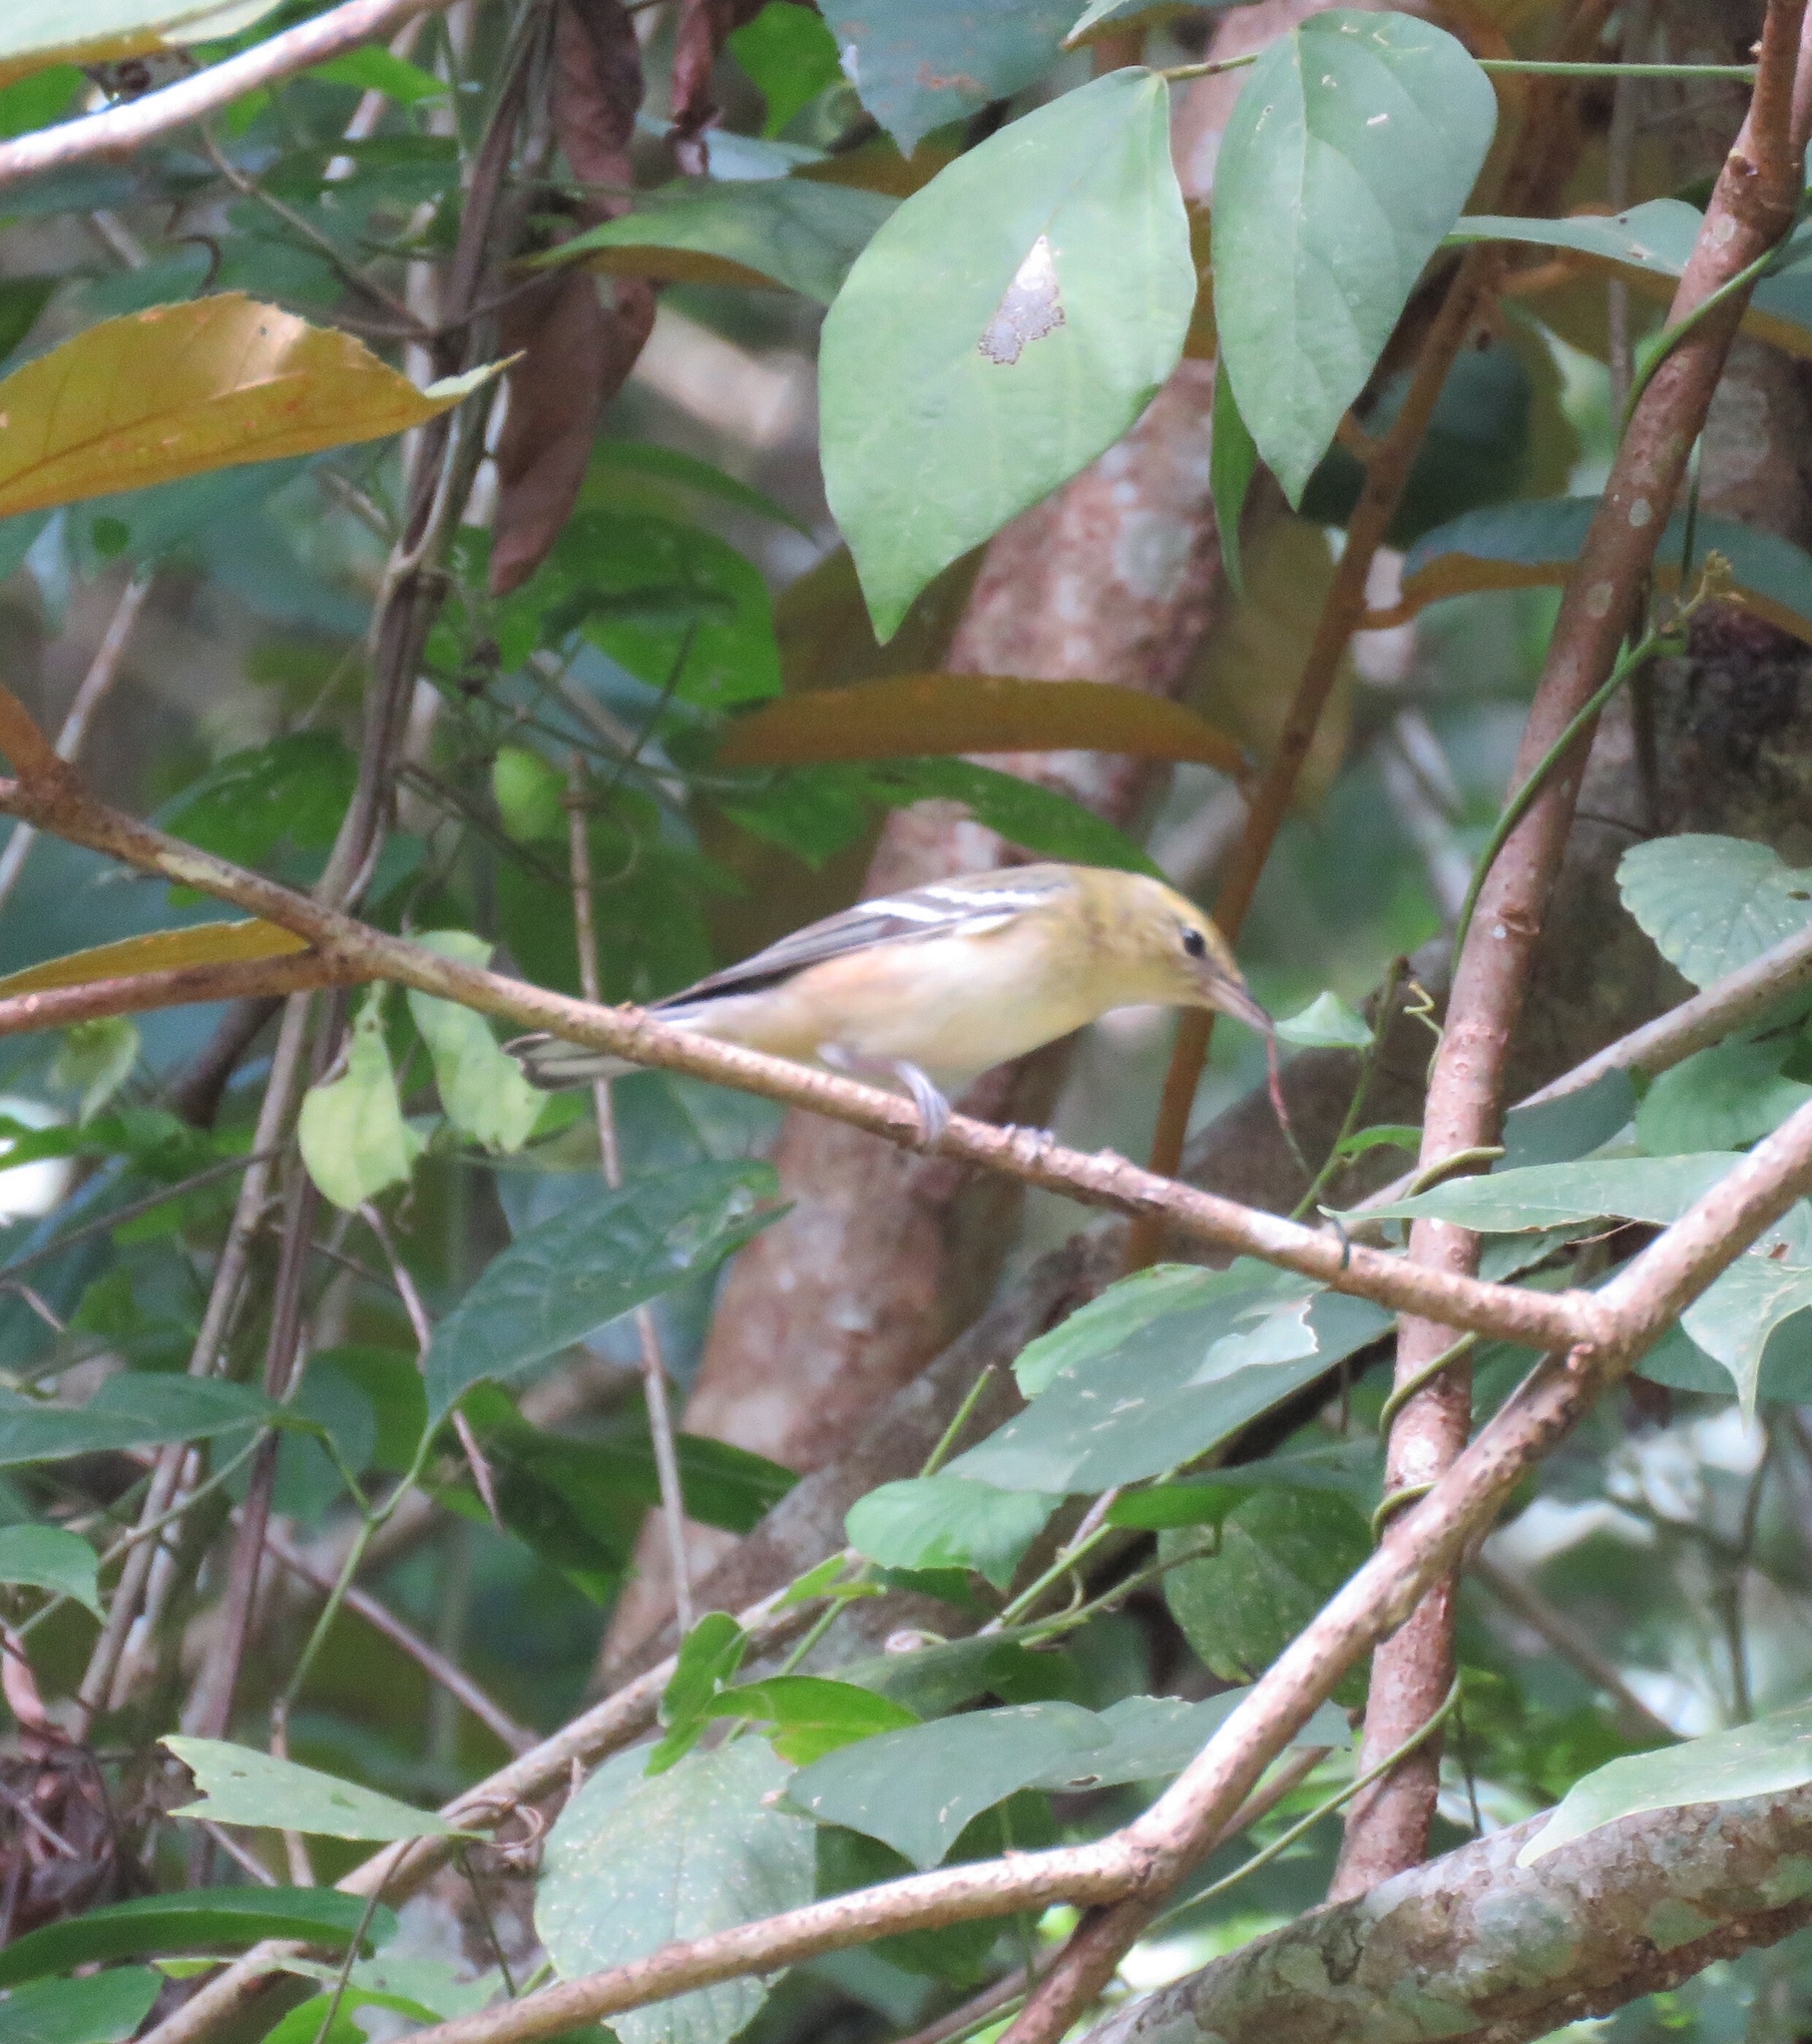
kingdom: Animalia
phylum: Chordata
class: Aves
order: Passeriformes
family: Parulidae
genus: Setophaga
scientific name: Setophaga castanea
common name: Bay-breasted warbler
